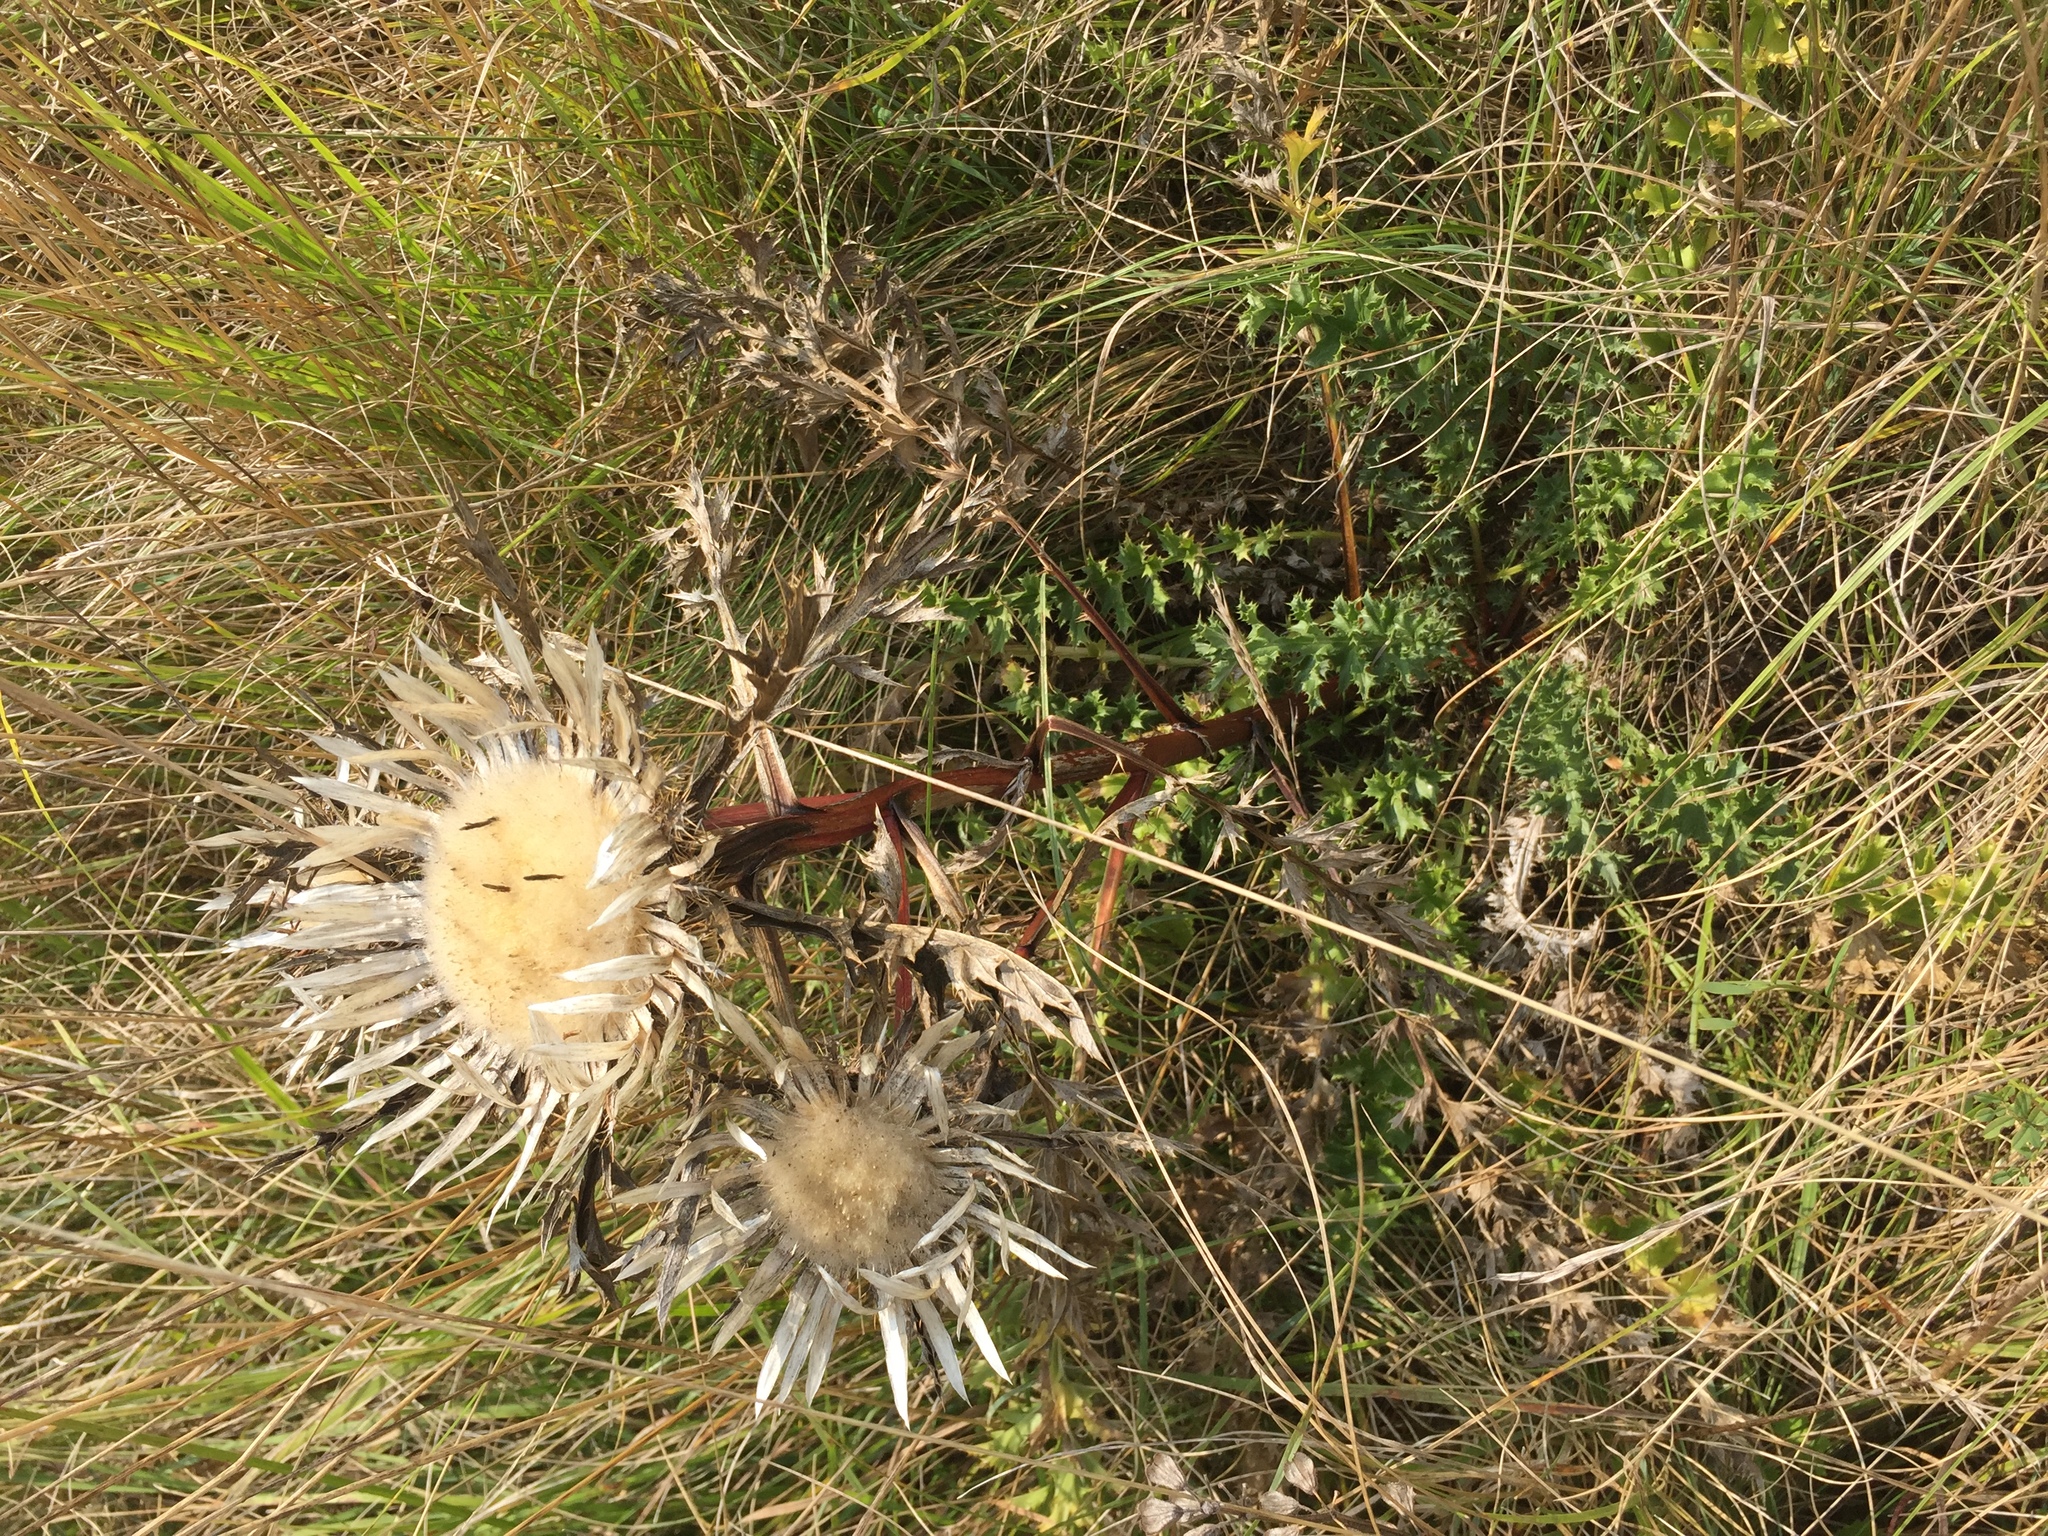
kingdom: Plantae
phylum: Tracheophyta
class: Magnoliopsida
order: Asterales
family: Asteraceae
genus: Carlina
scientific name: Carlina acaulis
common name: Stemless carline thistle
